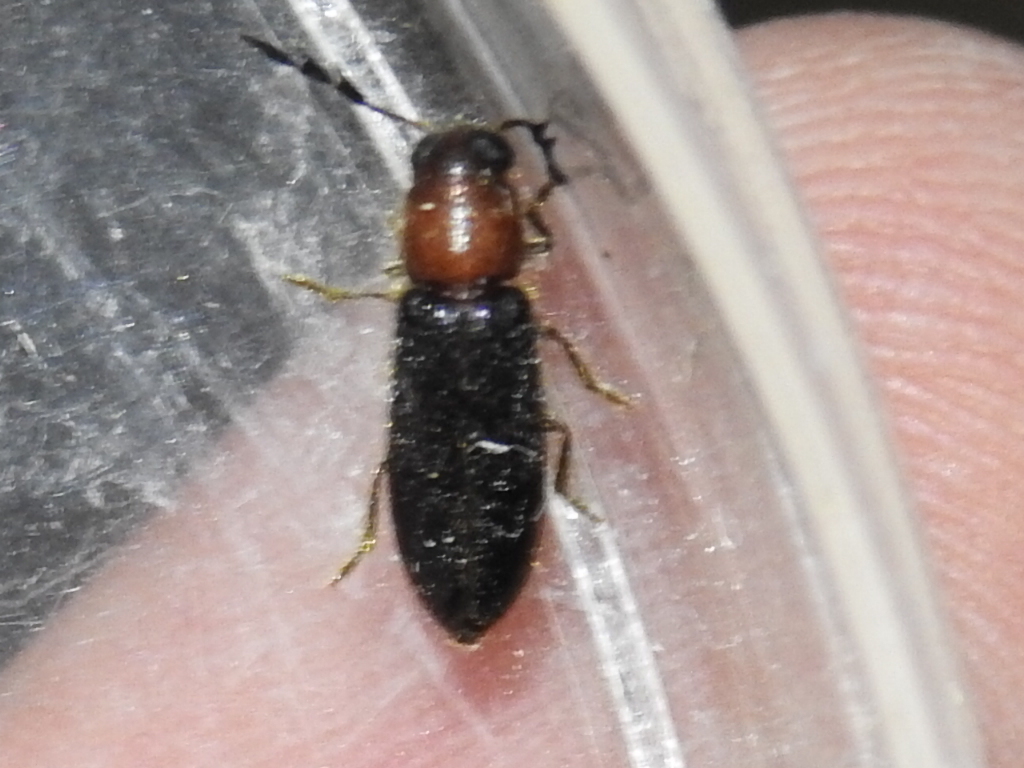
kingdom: Animalia
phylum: Arthropoda
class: Insecta
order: Coleoptera
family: Cleridae
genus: Neorthopleura
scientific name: Neorthopleura texana
